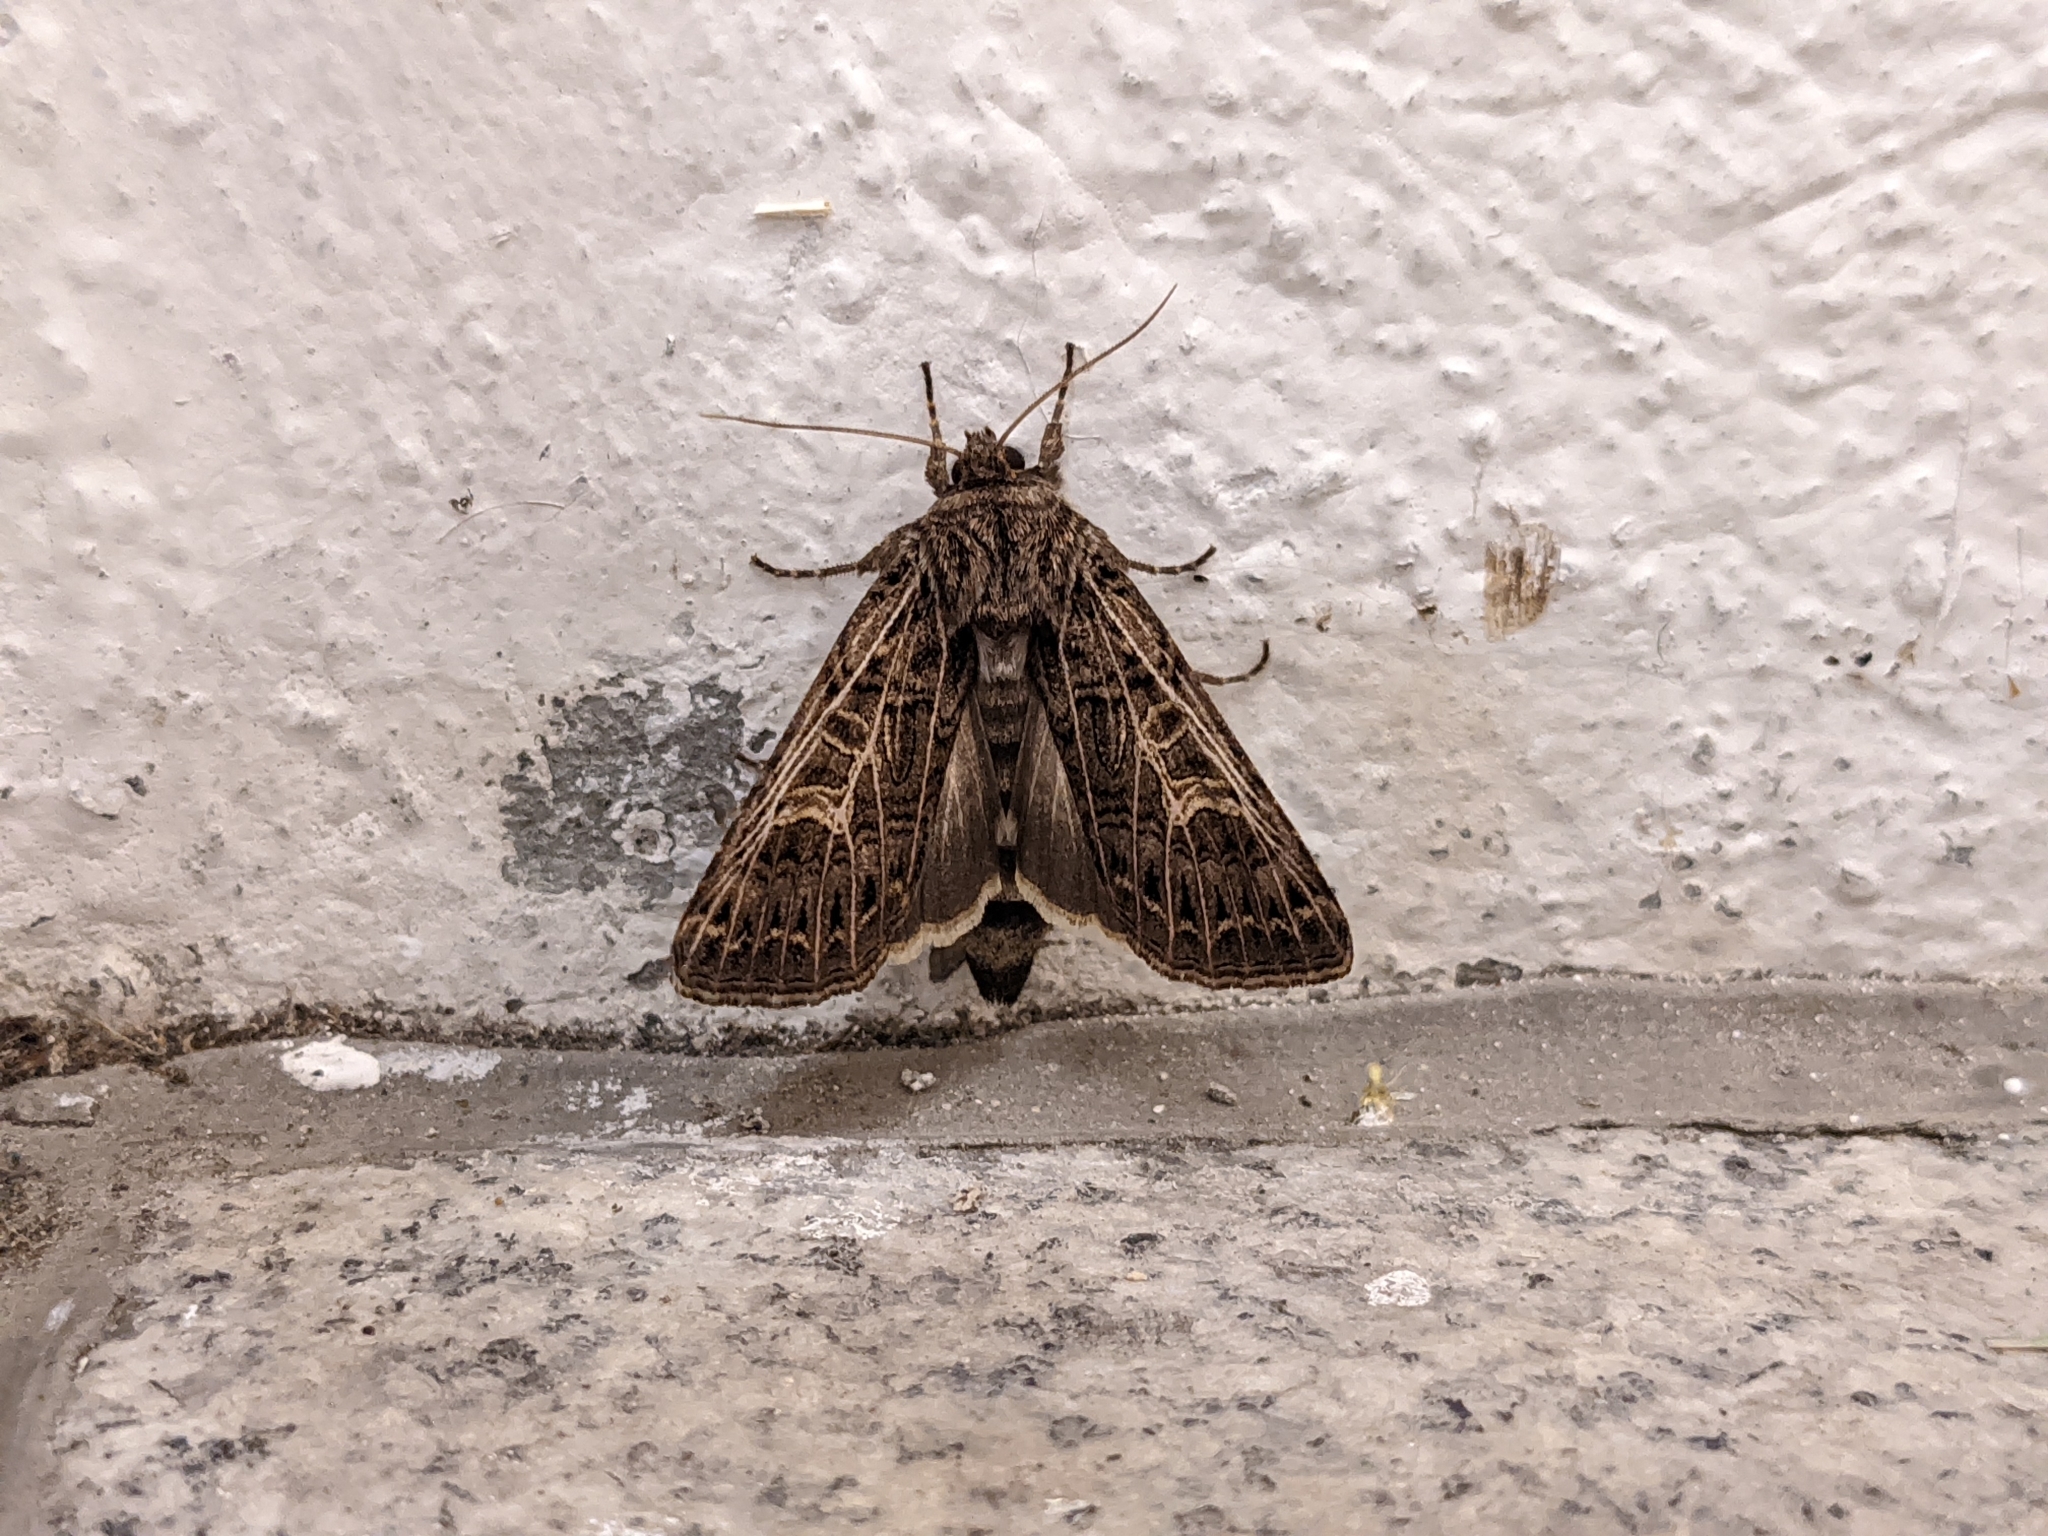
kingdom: Animalia
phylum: Arthropoda
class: Insecta
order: Lepidoptera
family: Noctuidae
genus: Tholera
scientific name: Tholera decimalis
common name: Feathered gothic
